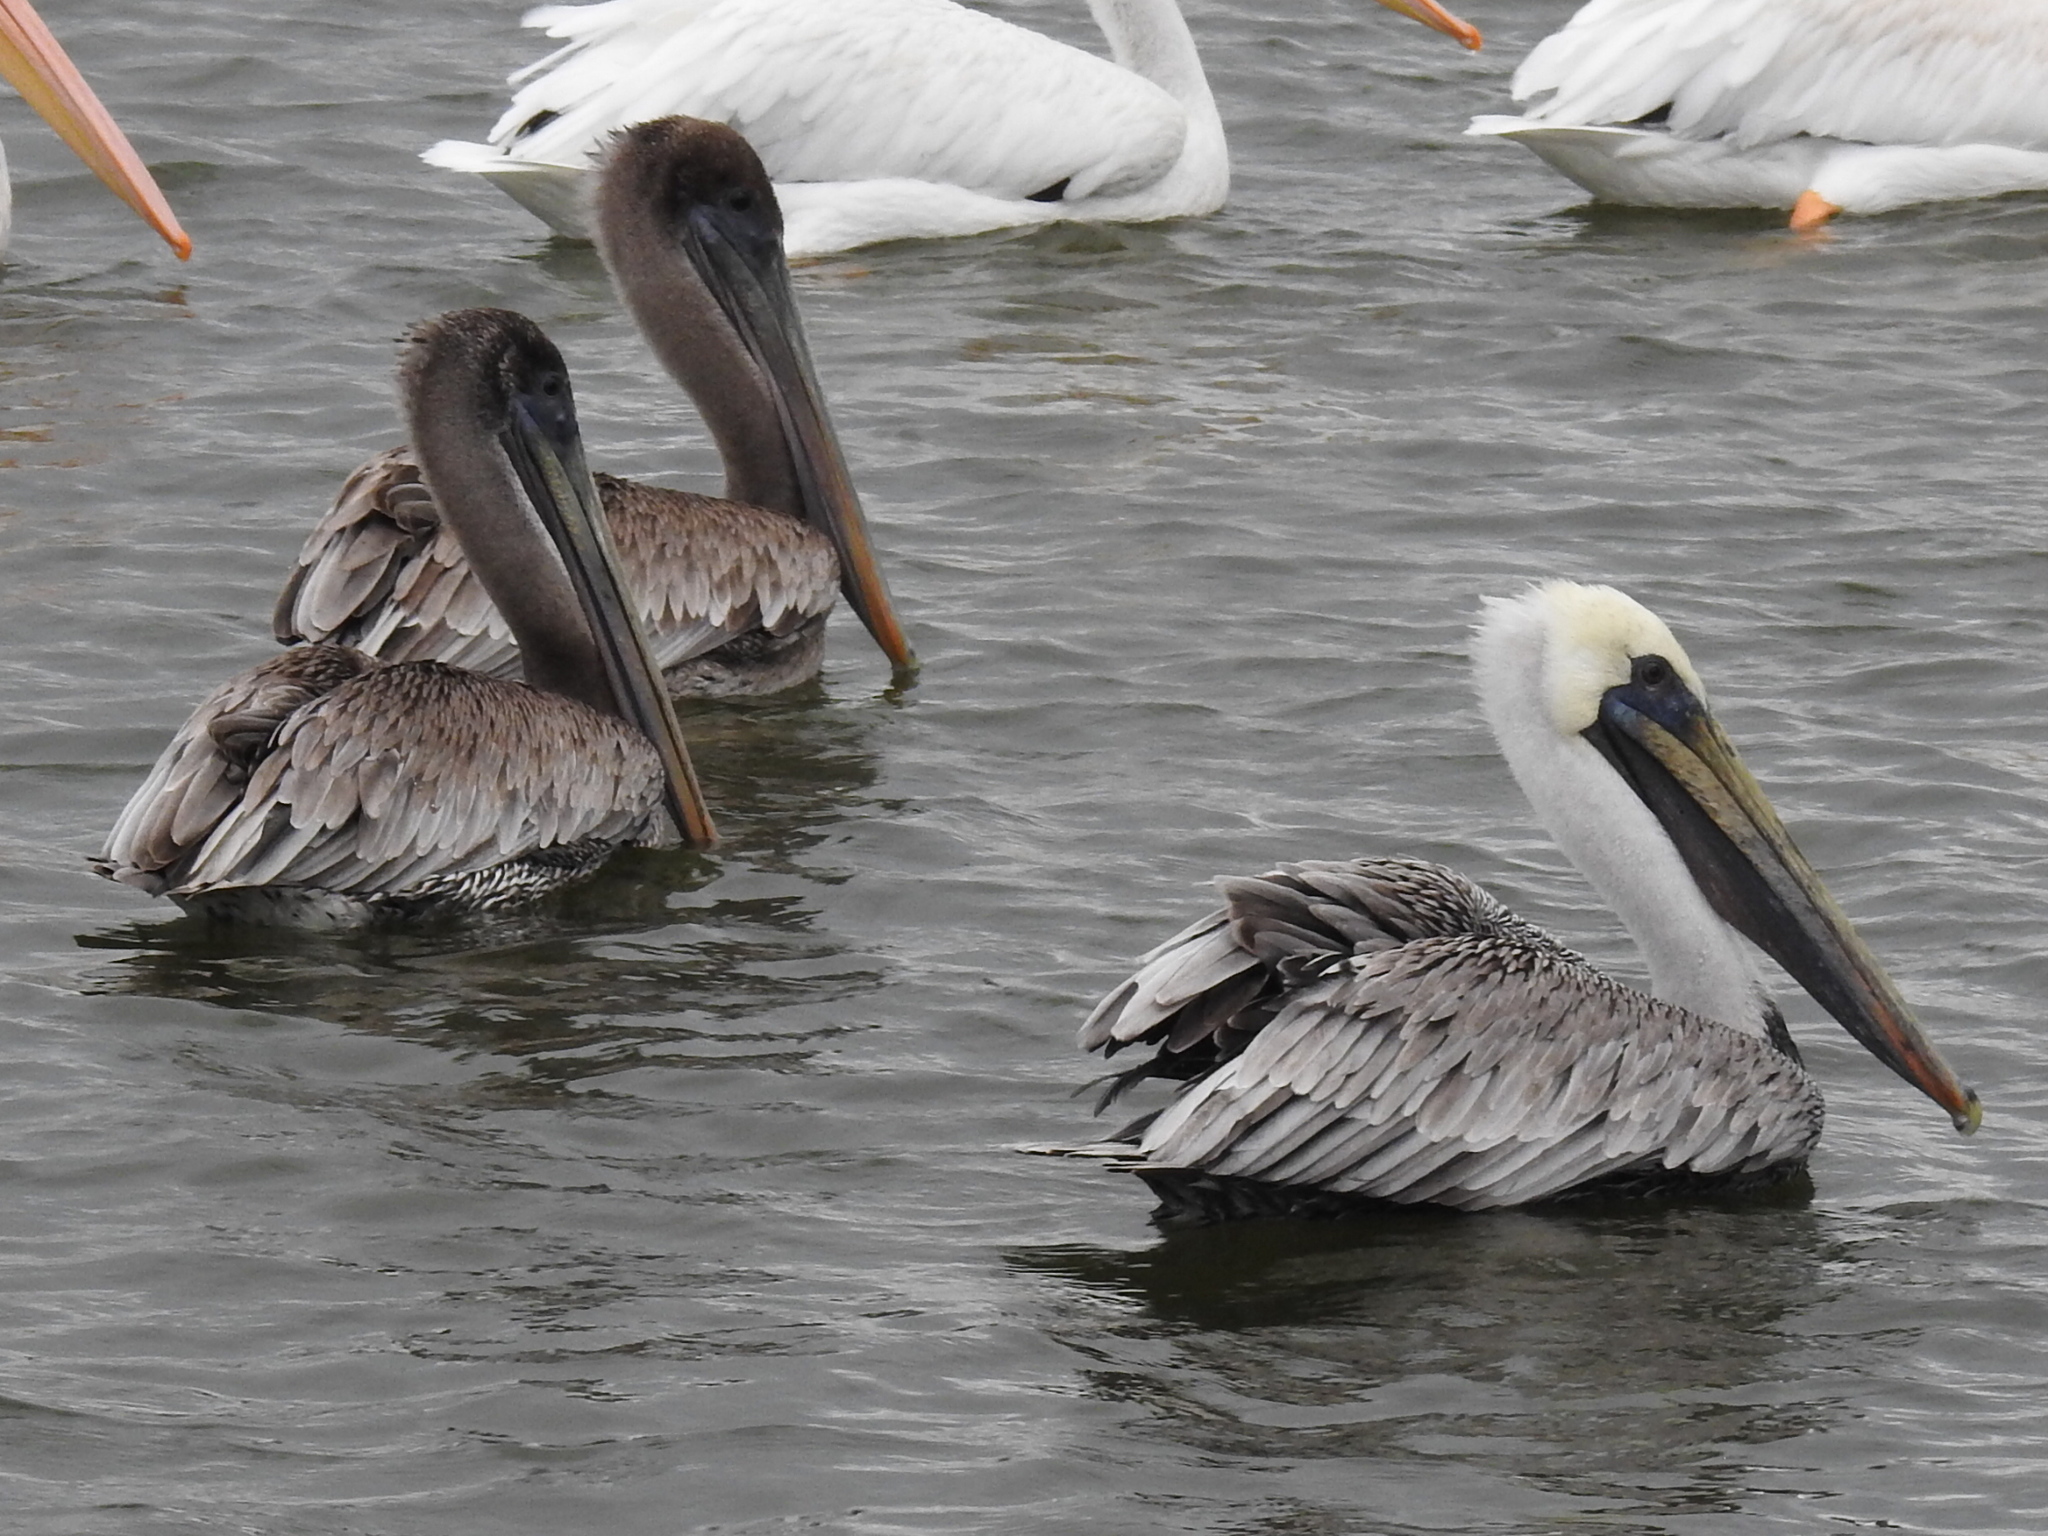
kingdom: Animalia
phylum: Chordata
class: Aves
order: Pelecaniformes
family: Pelecanidae
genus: Pelecanus
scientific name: Pelecanus occidentalis
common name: Brown pelican
